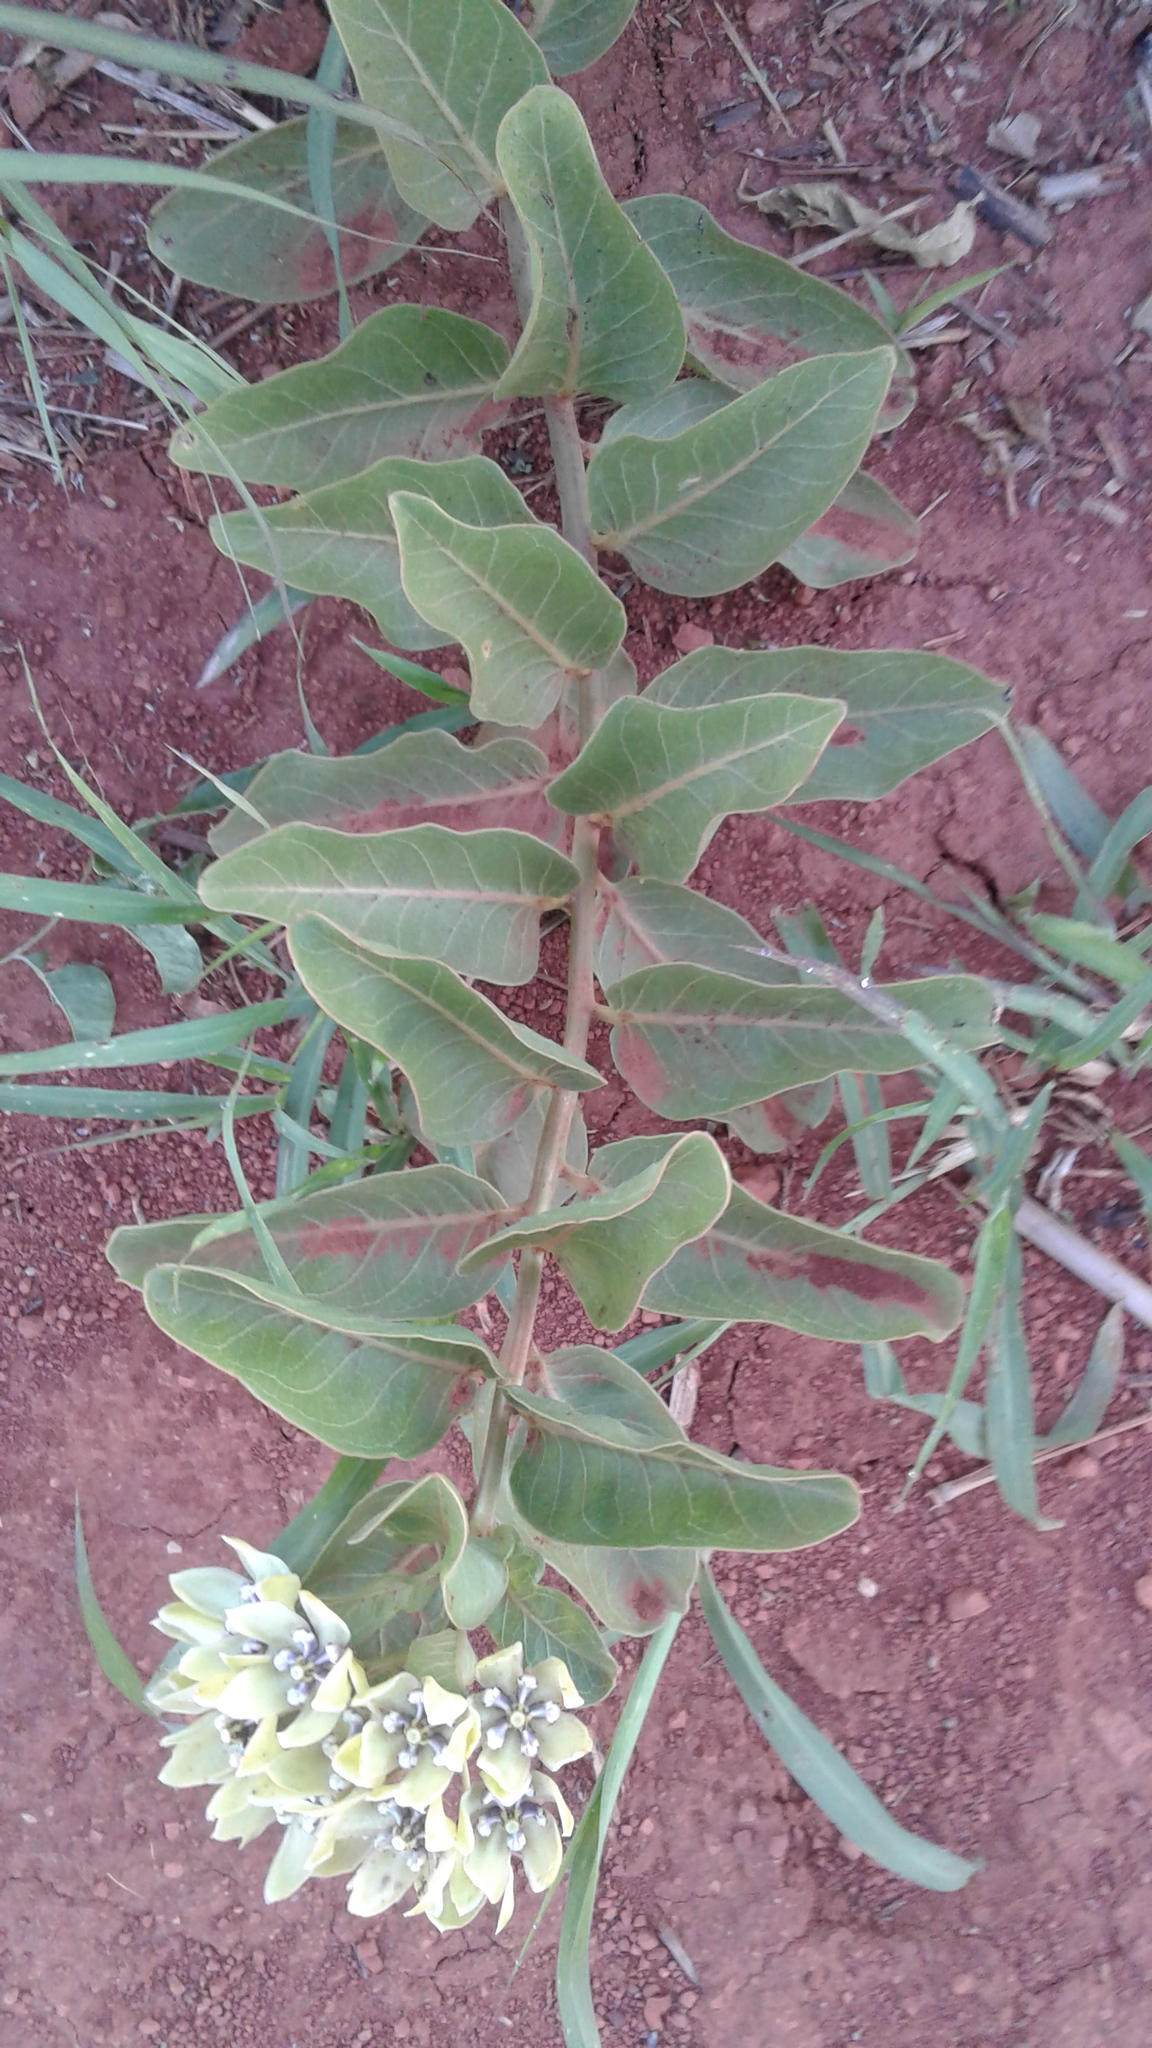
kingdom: Plantae
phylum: Tracheophyta
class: Magnoliopsida
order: Gentianales
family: Apocynaceae
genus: Asclepias
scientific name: Asclepias viridis
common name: Antelope-horns
